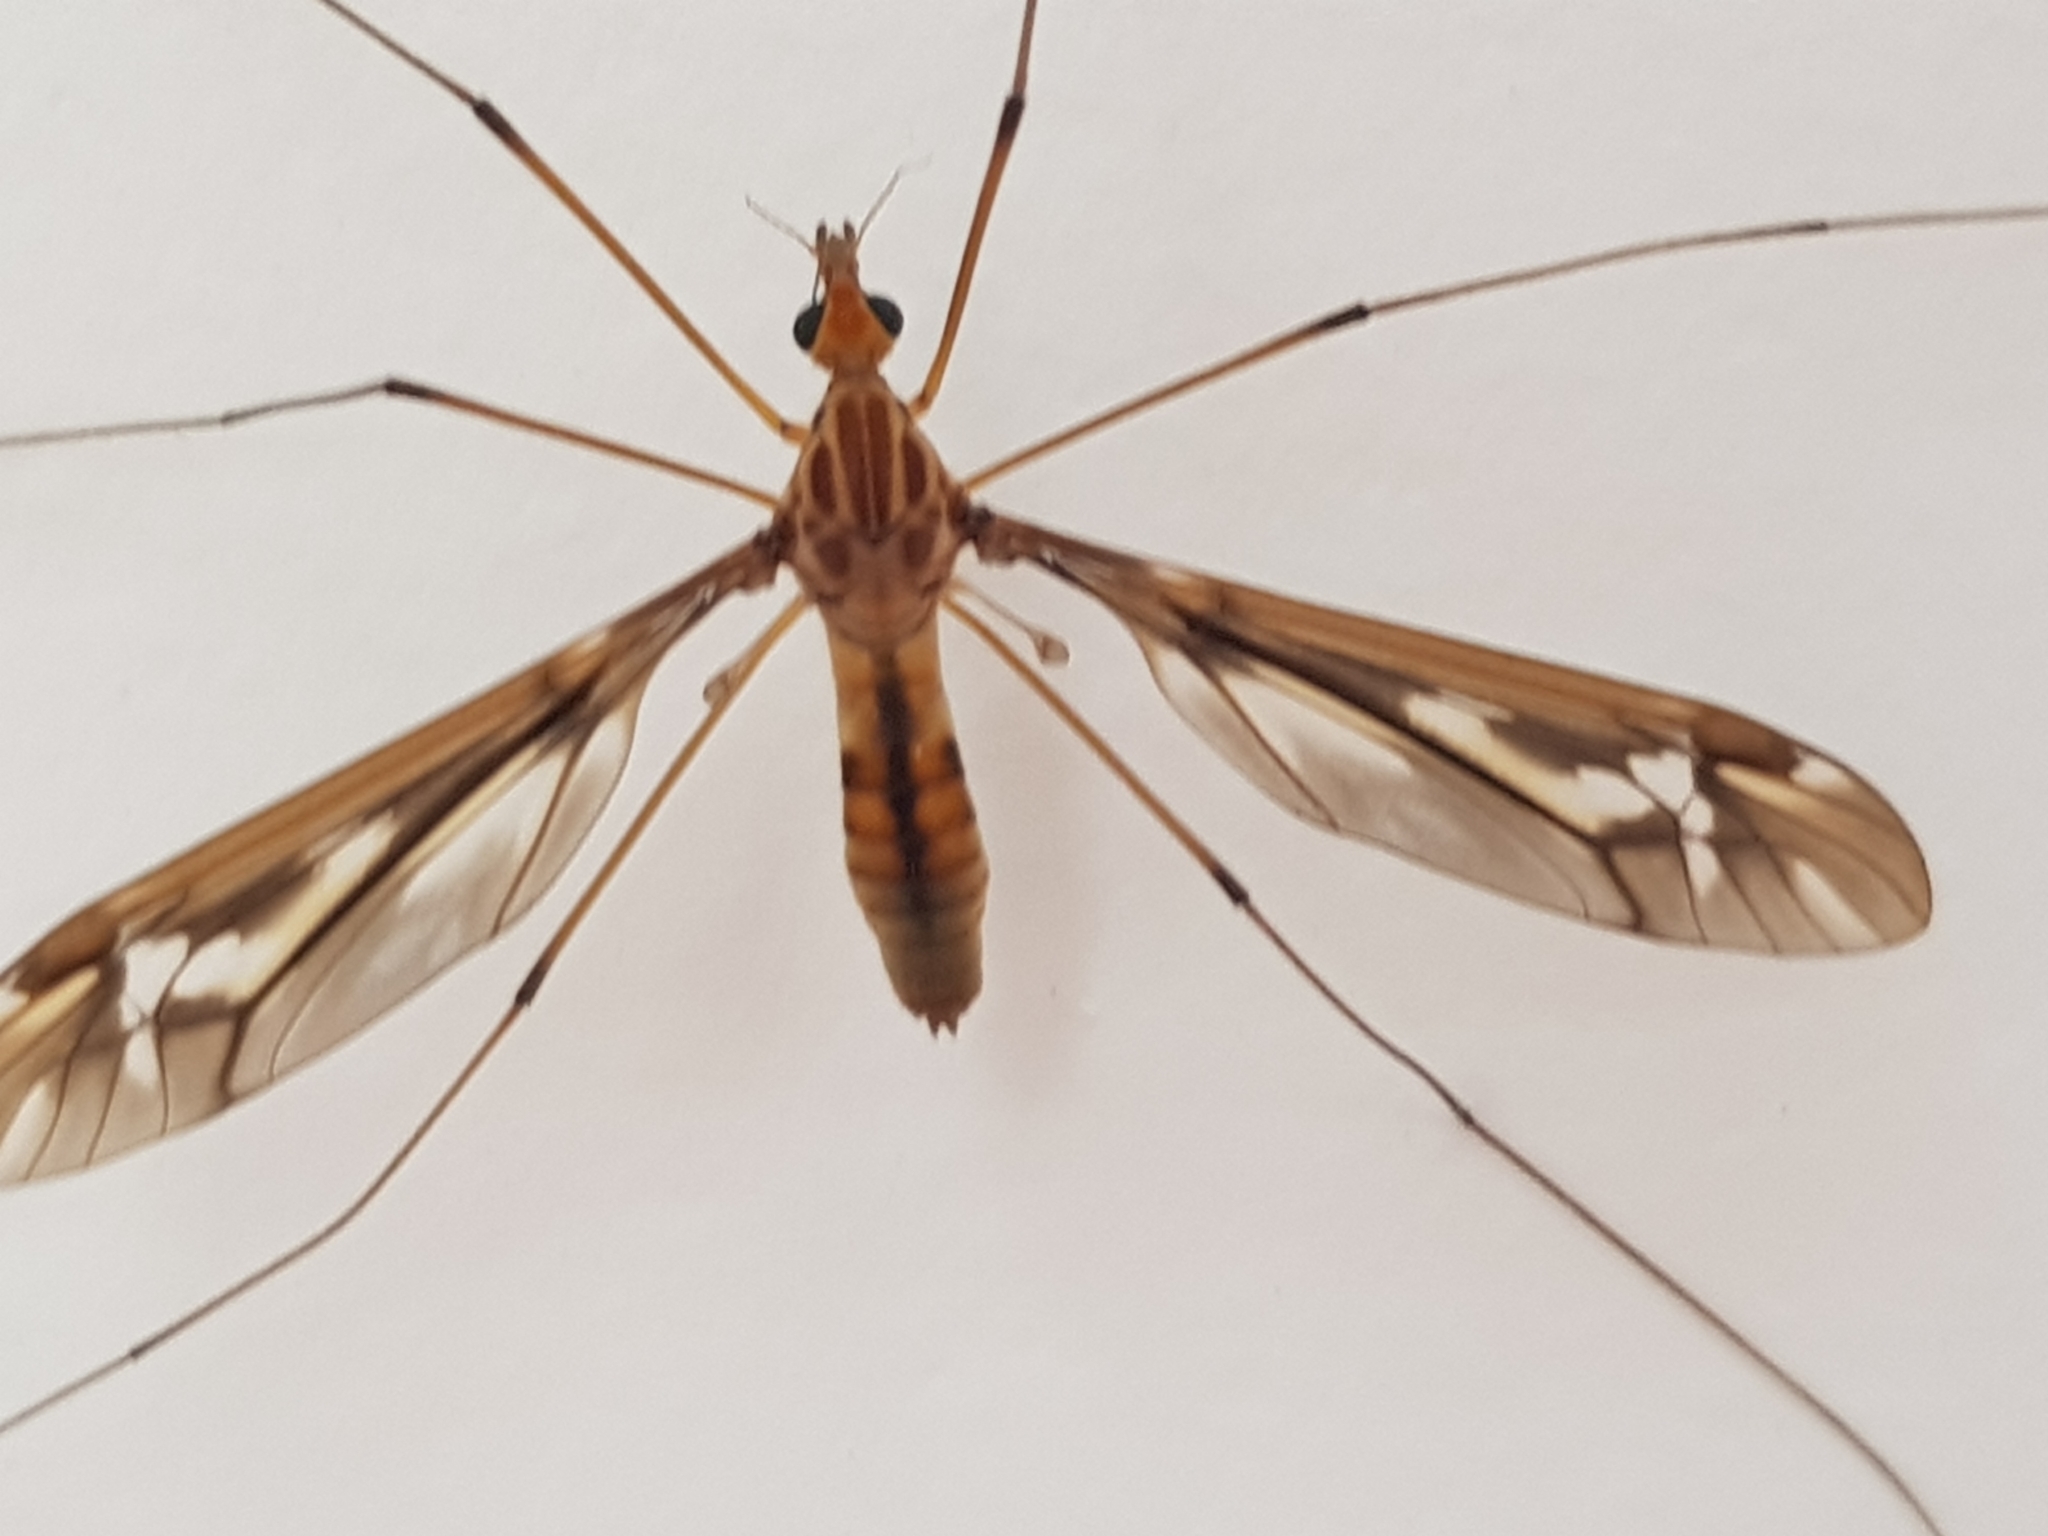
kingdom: Animalia
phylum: Arthropoda
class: Insecta
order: Diptera
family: Tipulidae
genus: Leptotarsus
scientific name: Leptotarsus huttoni
